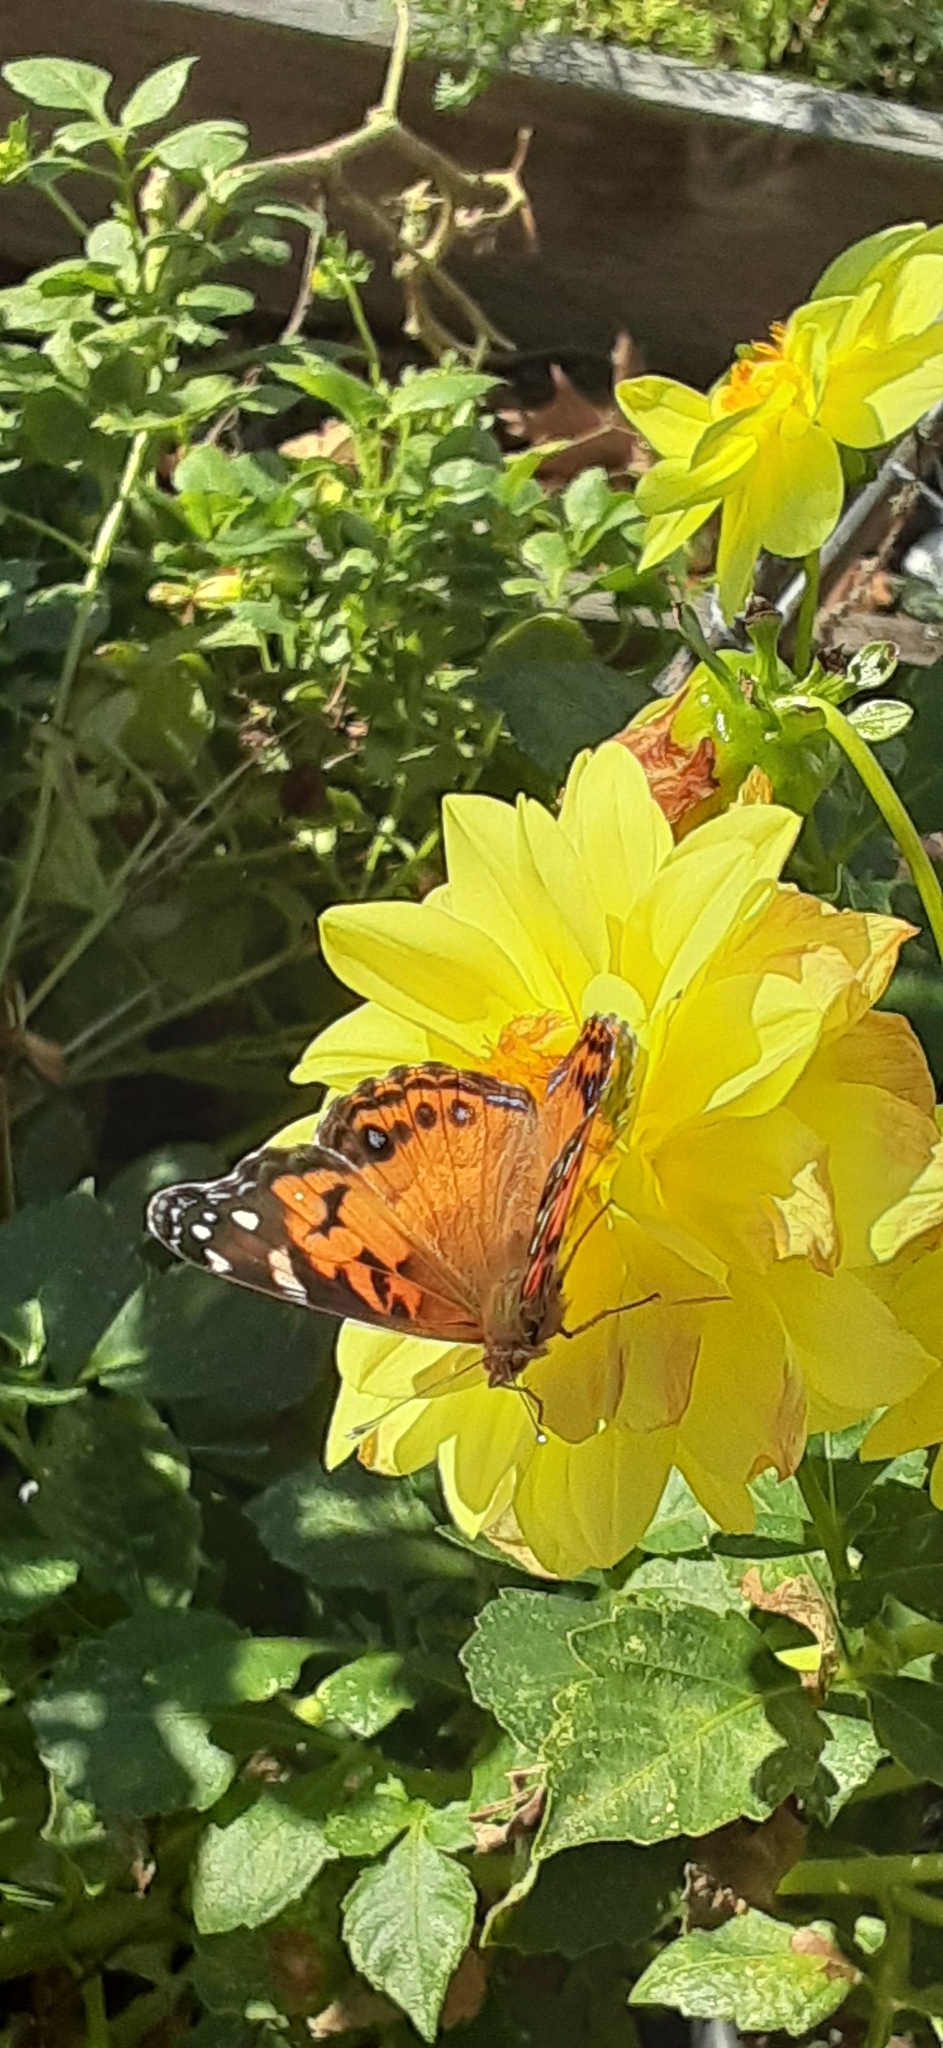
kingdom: Animalia
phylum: Arthropoda
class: Insecta
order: Lepidoptera
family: Nymphalidae
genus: Vanessa
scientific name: Vanessa virginiensis
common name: American lady
